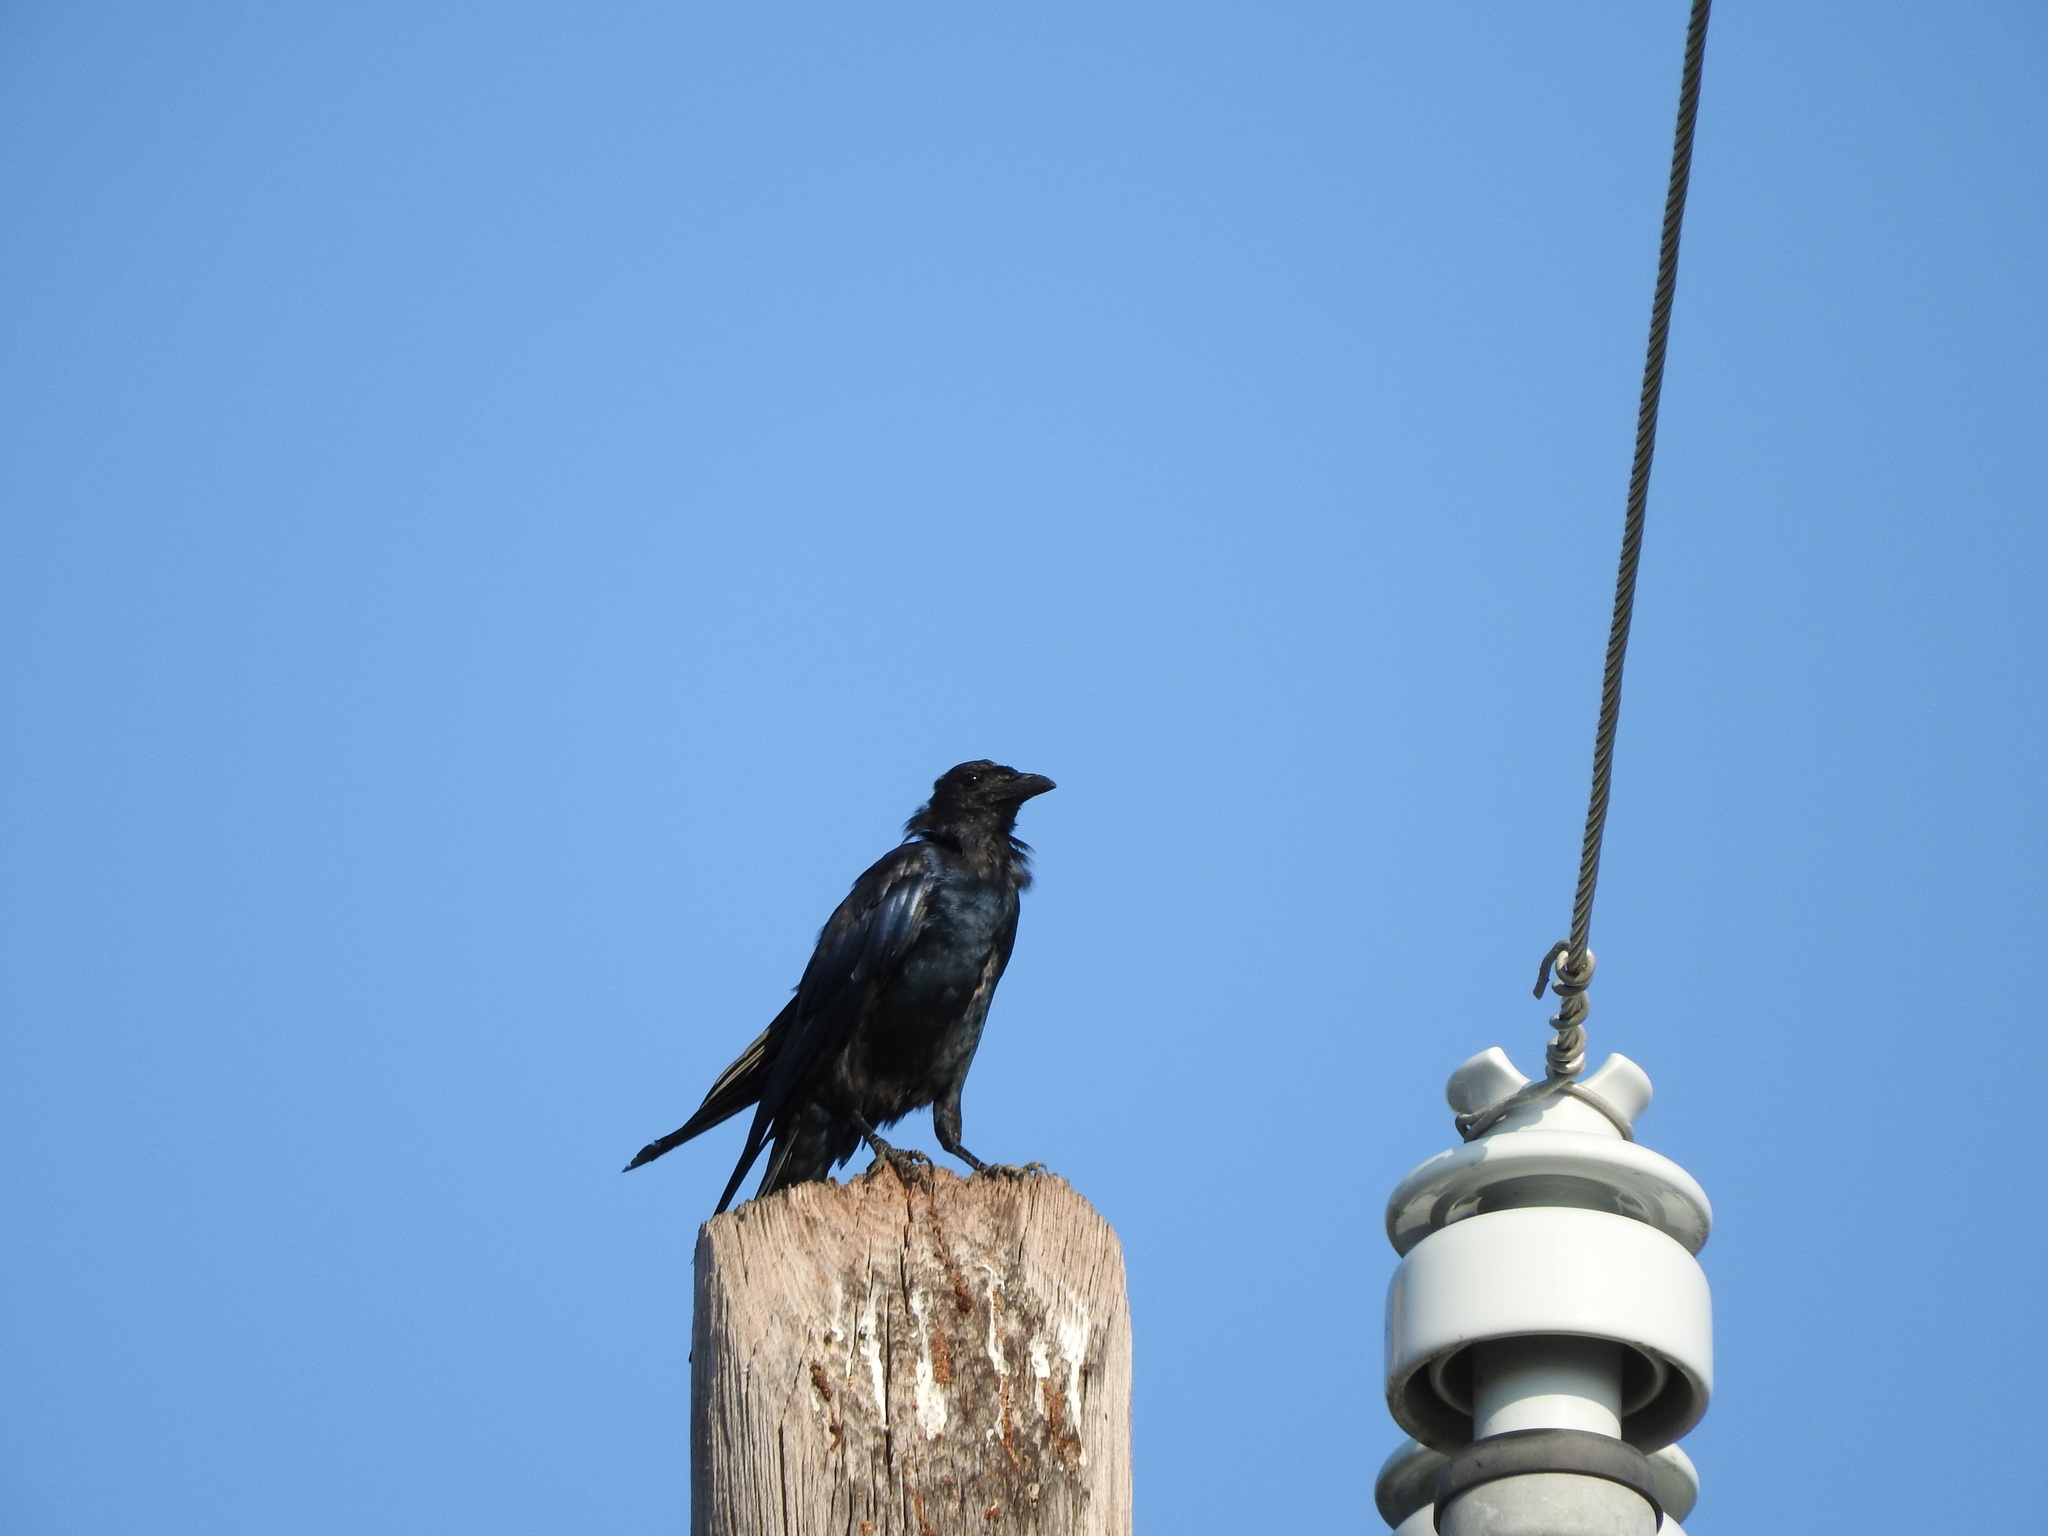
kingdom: Animalia
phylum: Chordata
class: Aves
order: Passeriformes
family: Corvidae
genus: Corvus
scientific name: Corvus sinaloae
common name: Sinaloa crow
